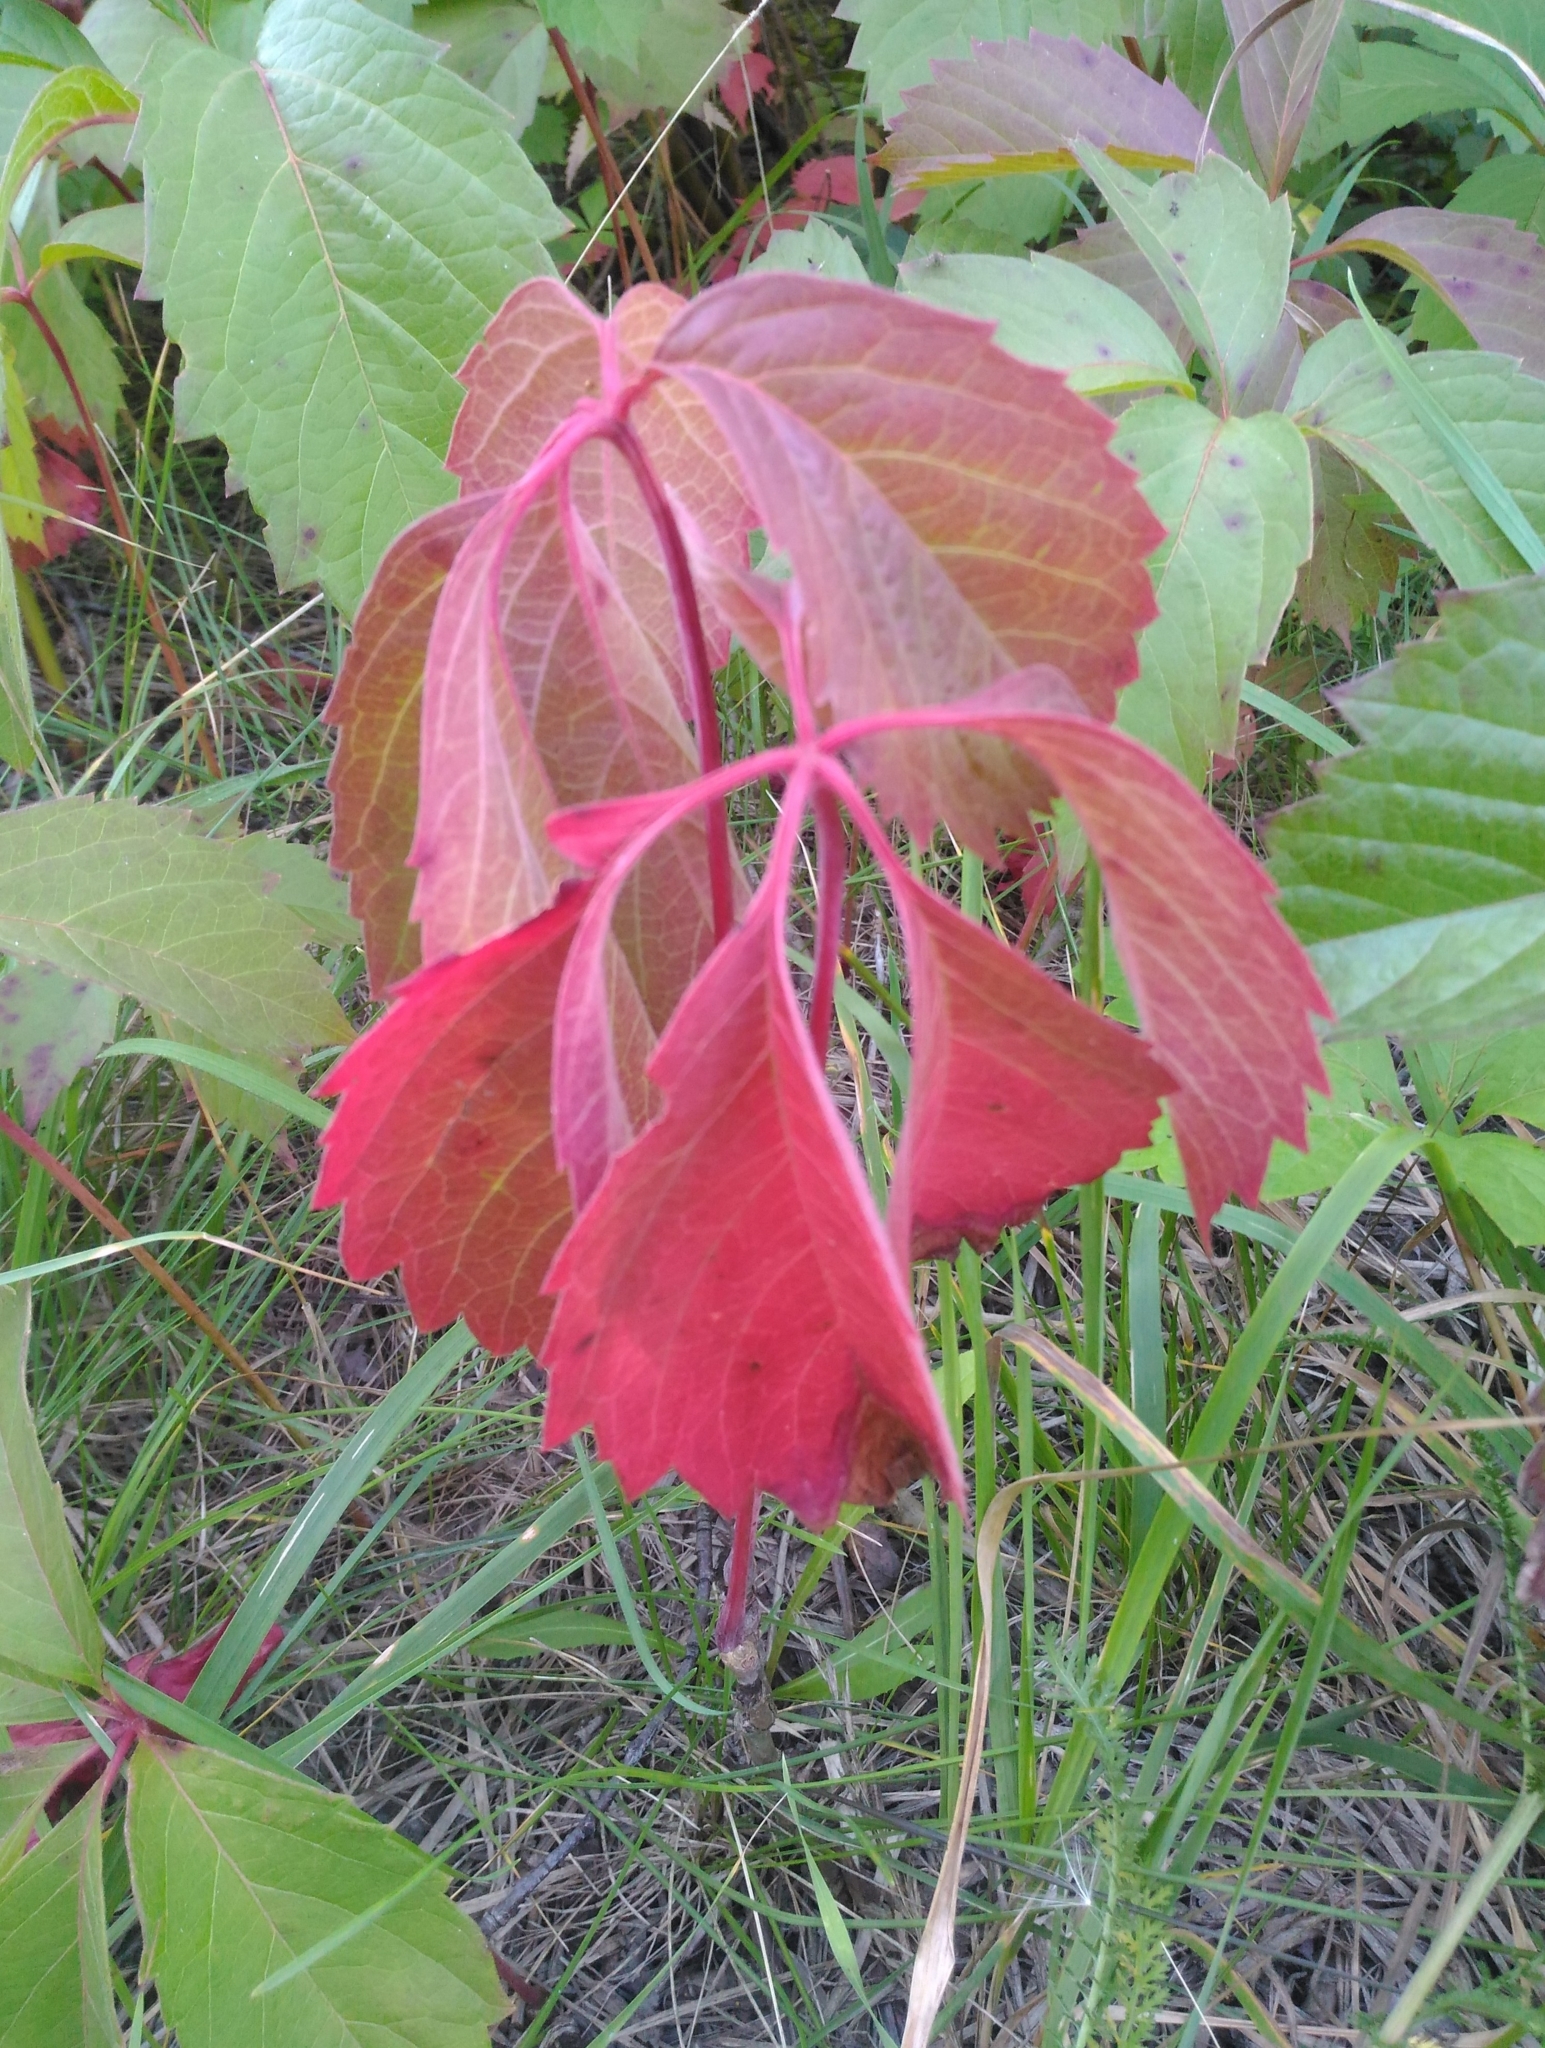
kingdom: Plantae
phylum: Tracheophyta
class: Magnoliopsida
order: Vitales
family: Vitaceae
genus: Parthenocissus
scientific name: Parthenocissus inserta
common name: False virginia-creeper
